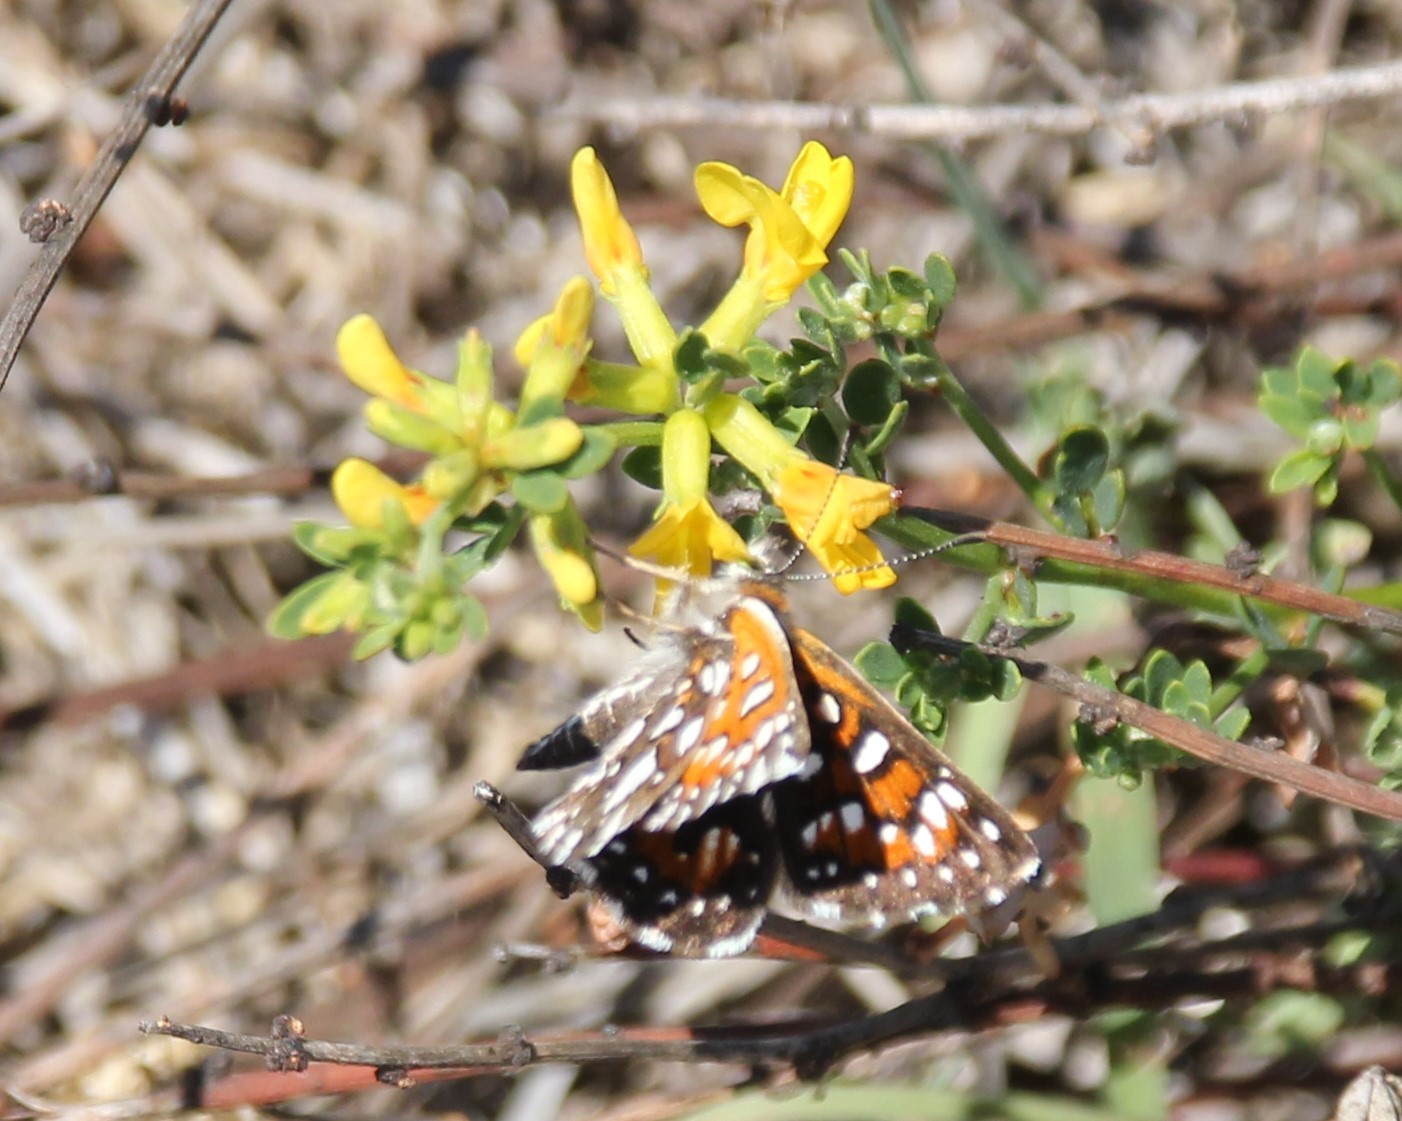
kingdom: Animalia
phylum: Arthropoda
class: Insecta
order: Lepidoptera
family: Riodinidae
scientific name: Riodinidae
